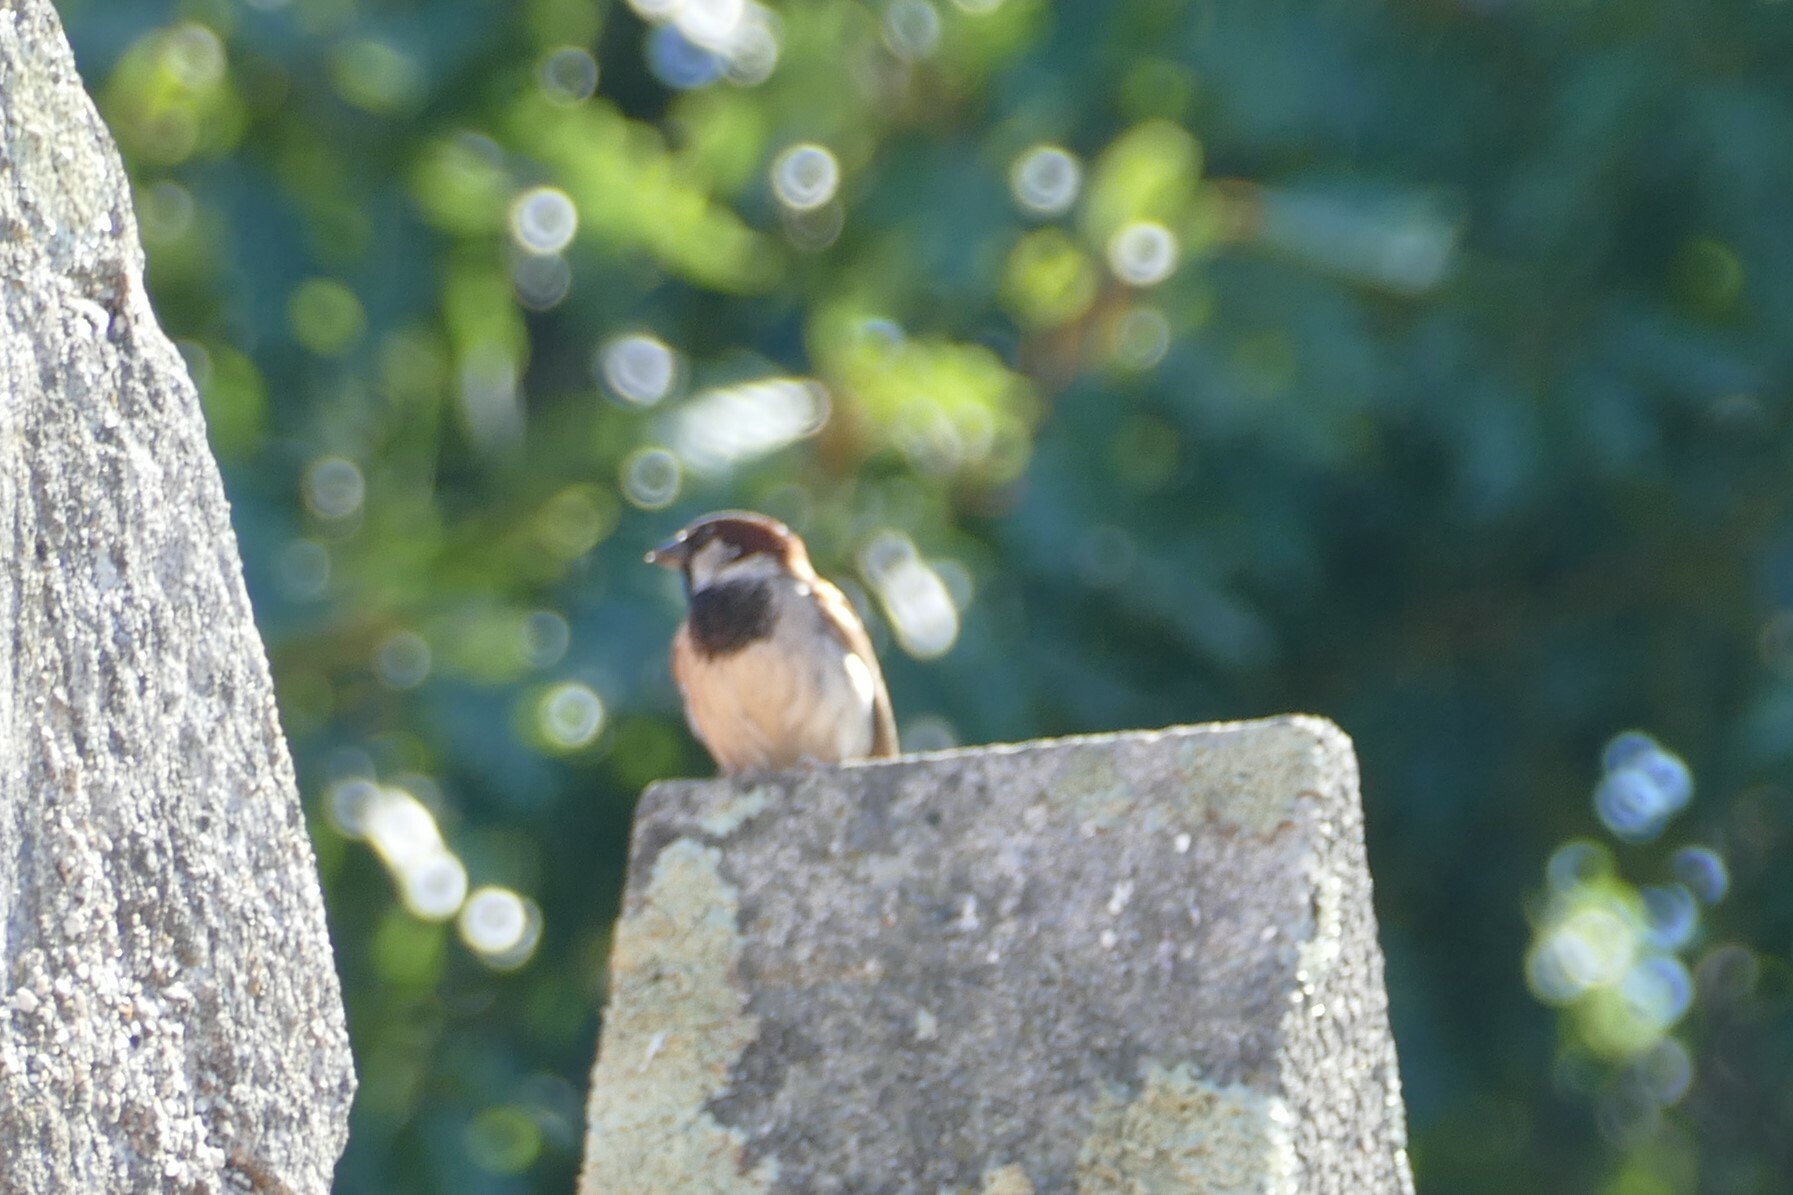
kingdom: Animalia
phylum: Chordata
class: Aves
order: Passeriformes
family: Passeridae
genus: Passer
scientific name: Passer domesticus
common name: House sparrow
